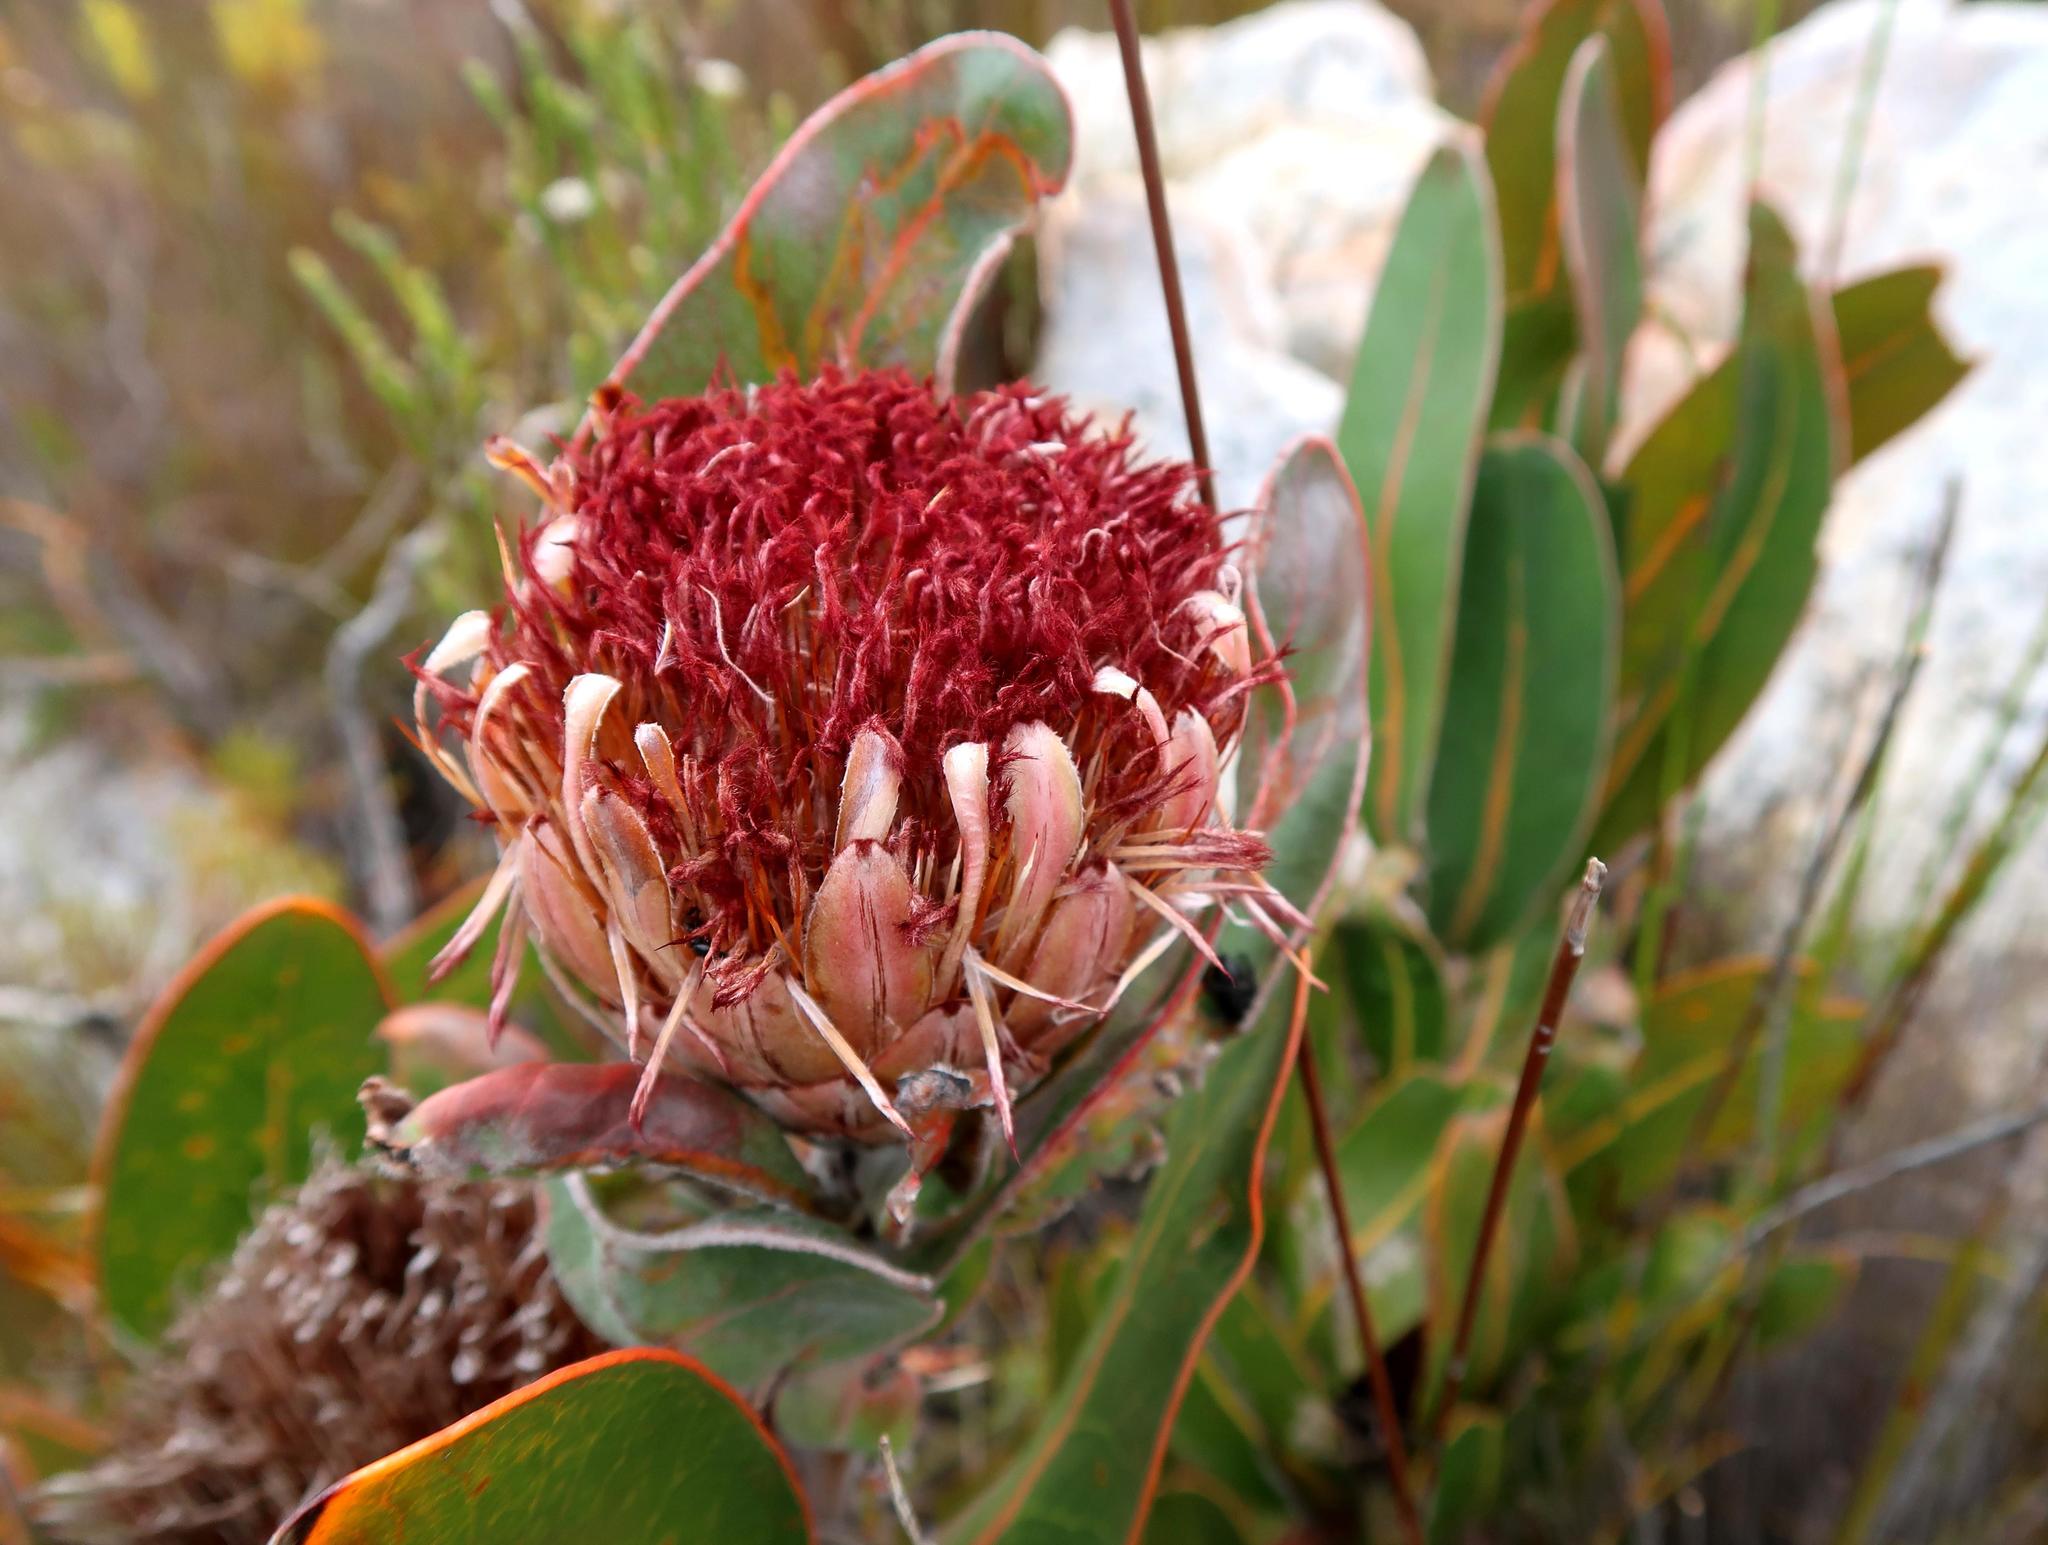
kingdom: Plantae
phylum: Tracheophyta
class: Magnoliopsida
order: Proteales
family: Proteaceae
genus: Protea
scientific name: Protea lorifolia
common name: Strap-leaved protea
